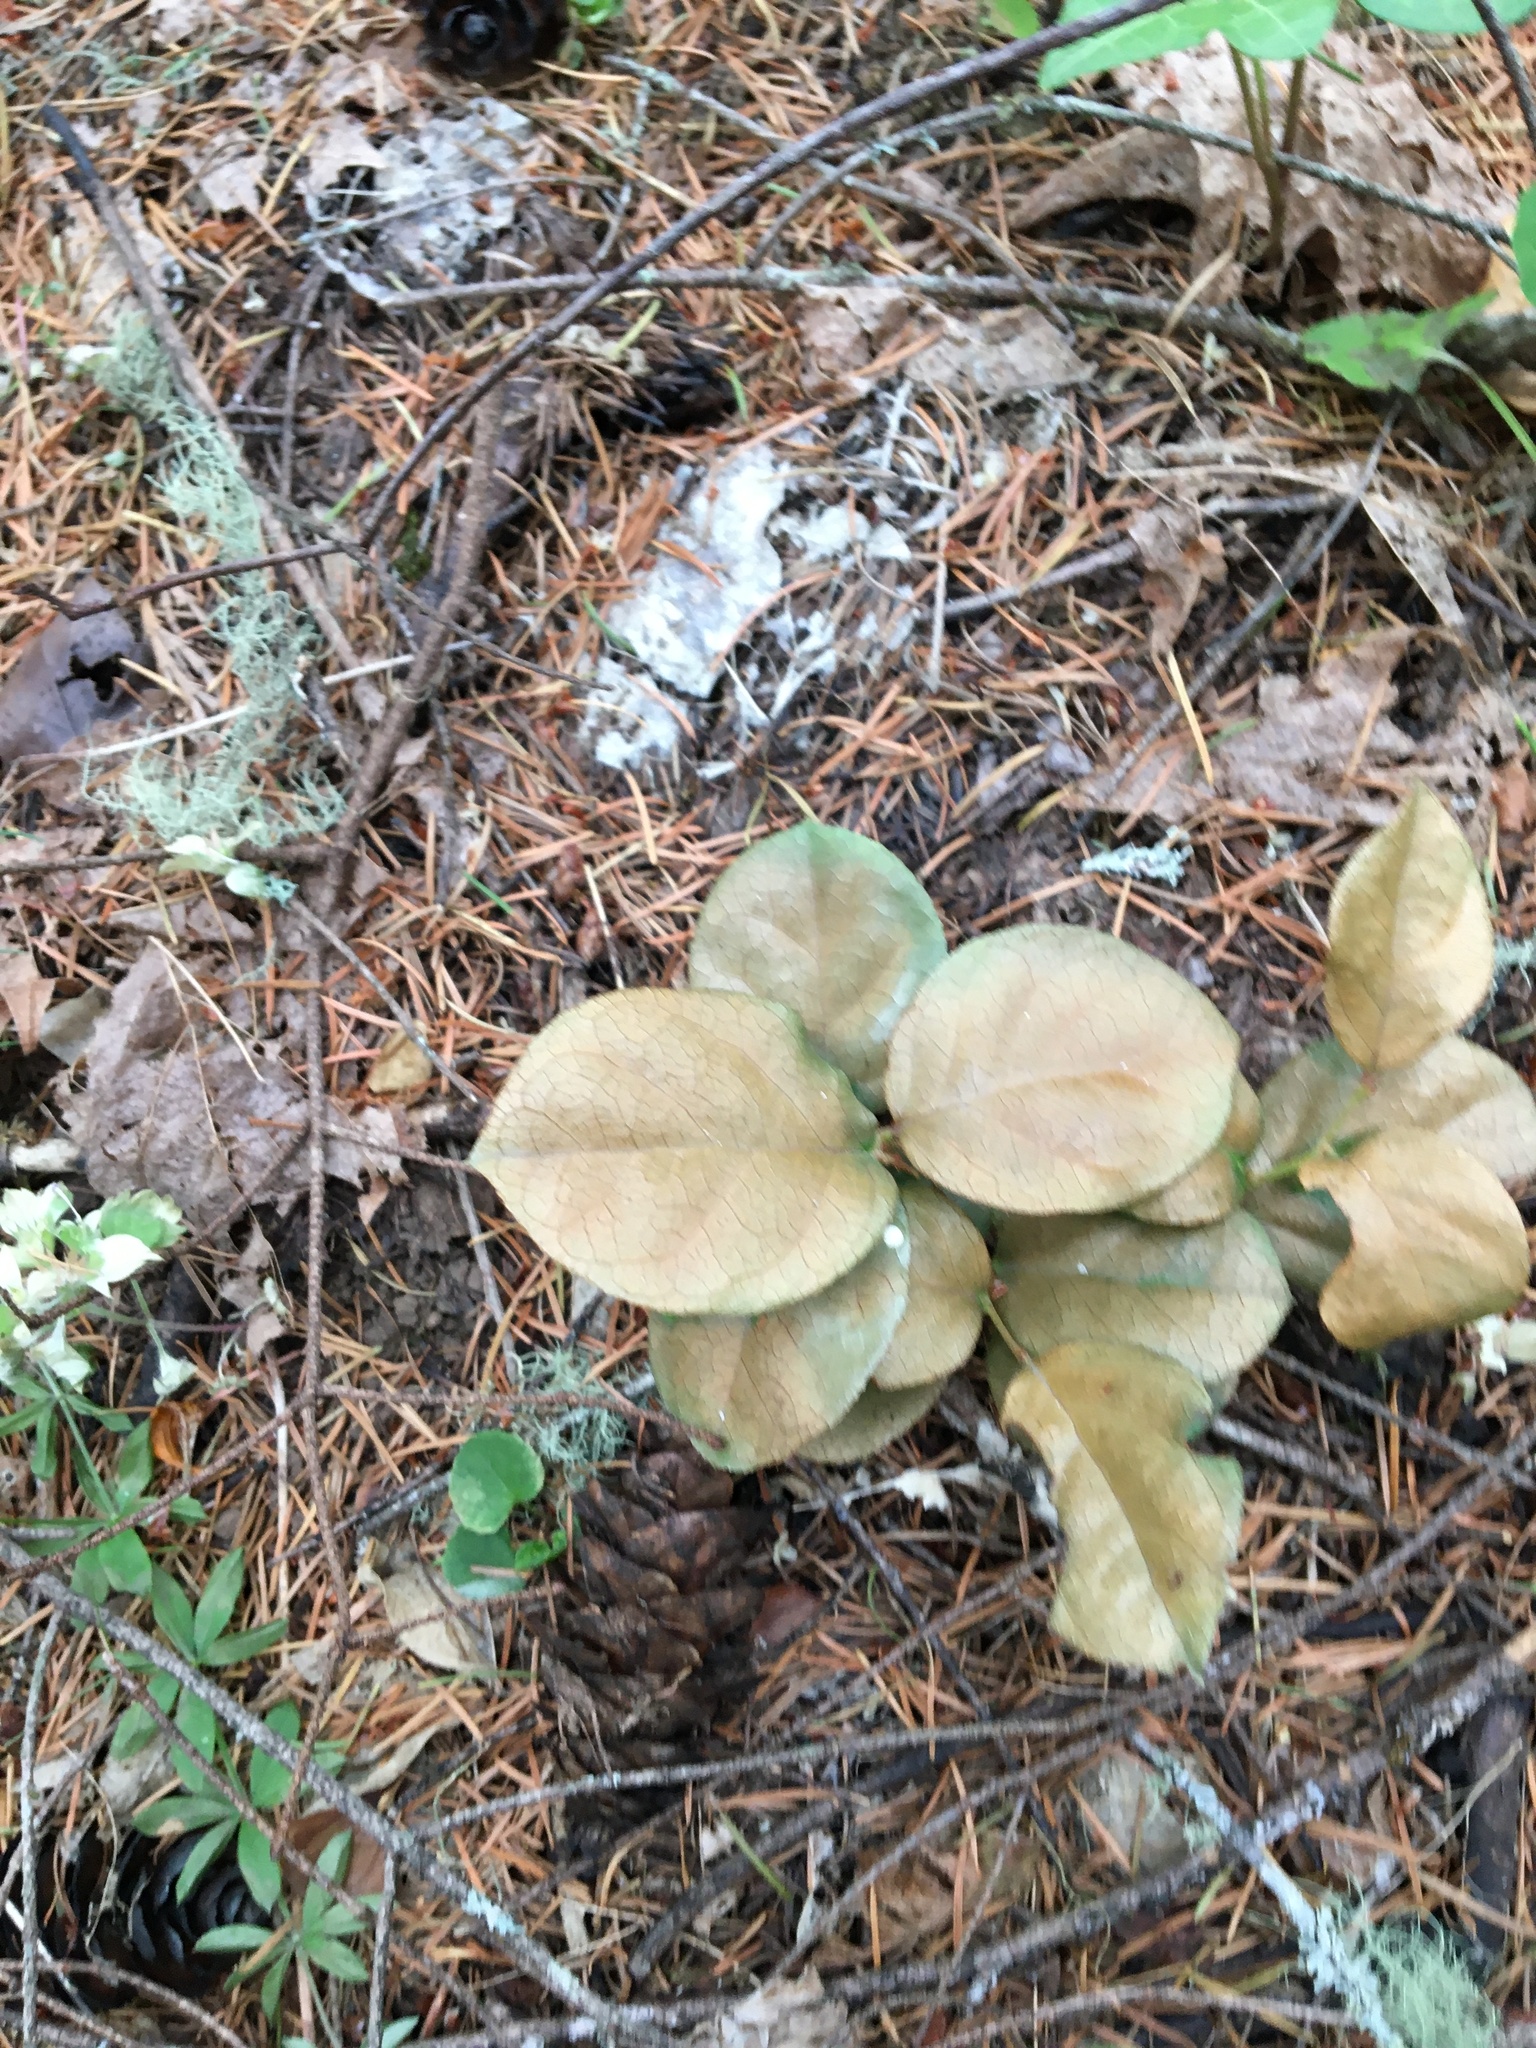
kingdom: Plantae
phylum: Tracheophyta
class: Magnoliopsida
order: Ericales
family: Ericaceae
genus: Gaultheria
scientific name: Gaultheria shallon
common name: Shallon
